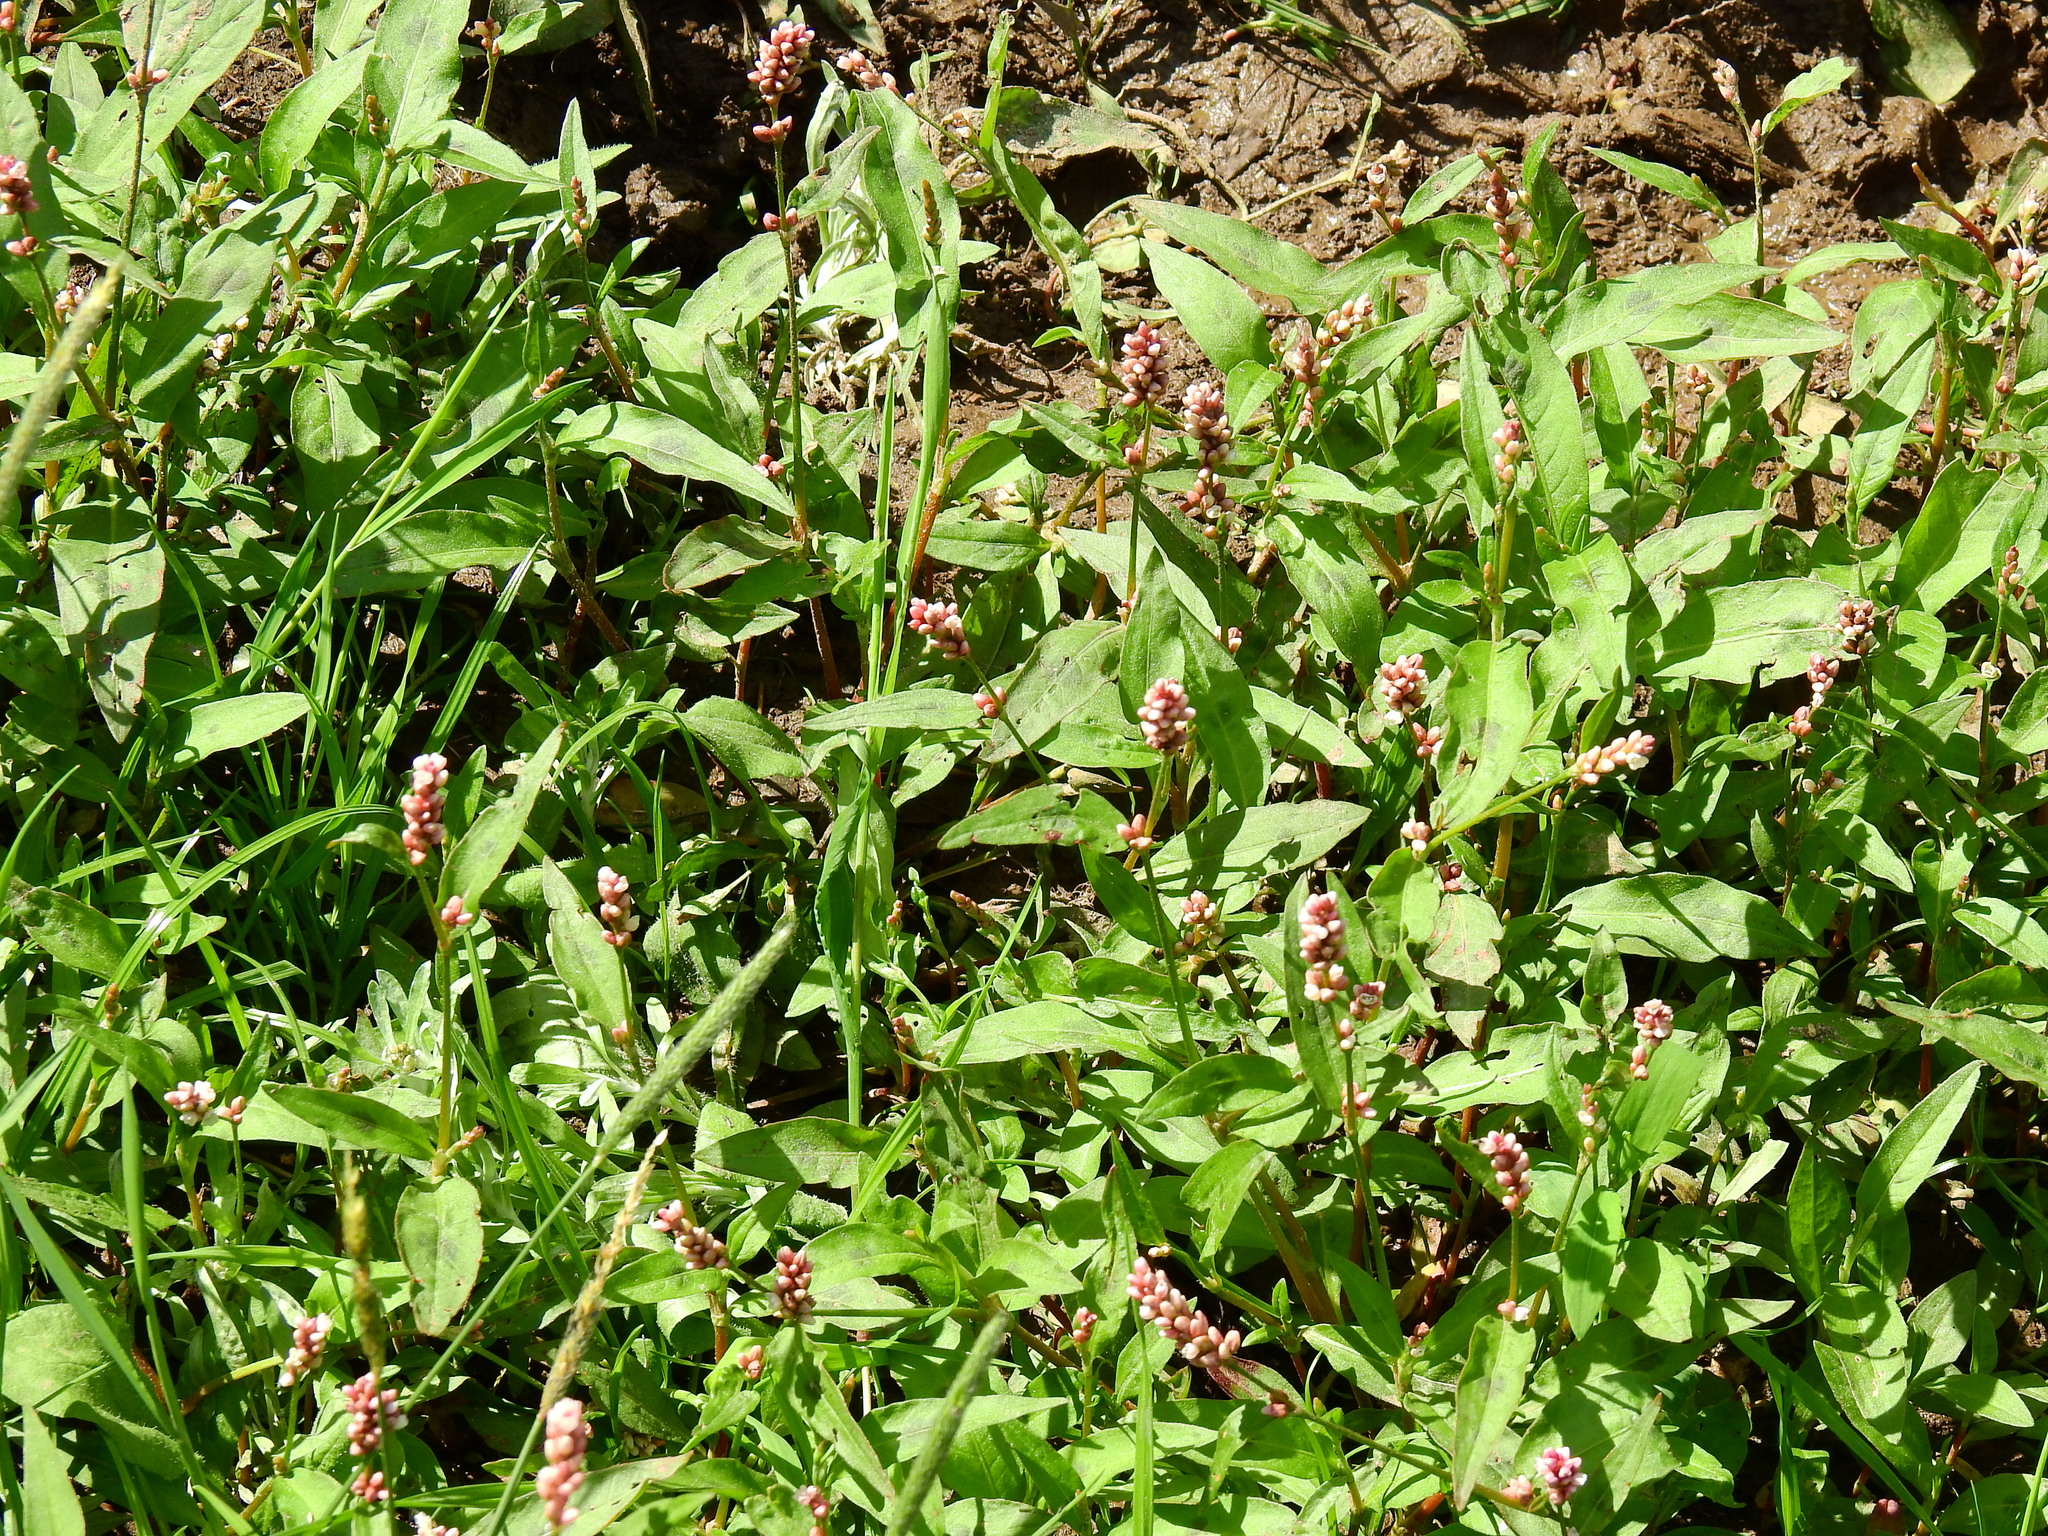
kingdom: Plantae
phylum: Tracheophyta
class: Magnoliopsida
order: Caryophyllales
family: Polygonaceae
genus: Persicaria
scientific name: Persicaria maculosa
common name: Redshank
